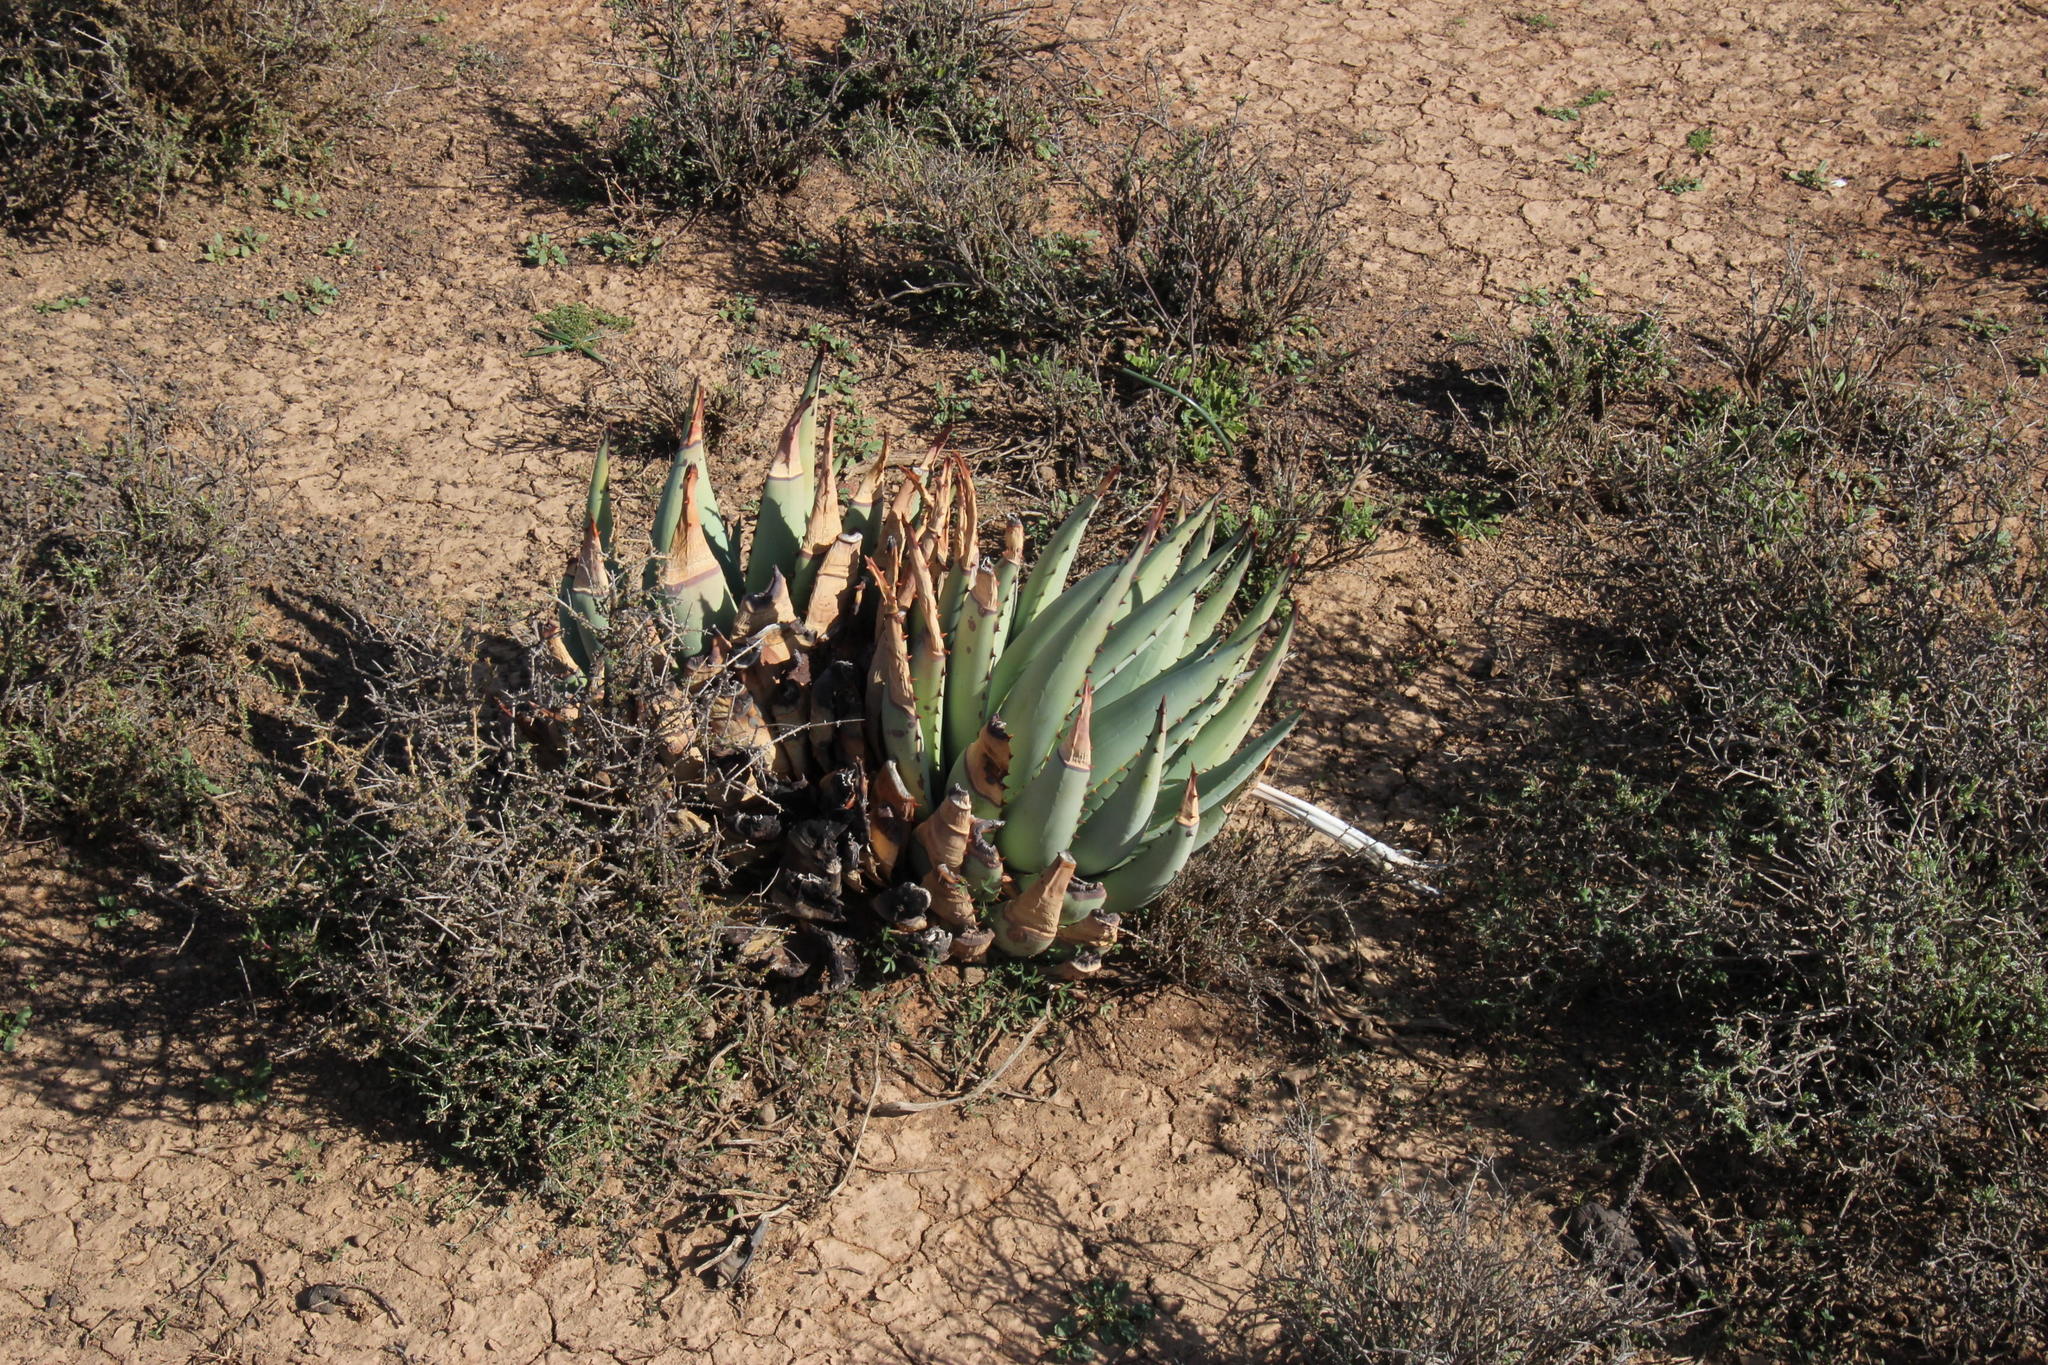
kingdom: Plantae
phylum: Tracheophyta
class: Liliopsida
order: Asparagales
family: Asphodelaceae
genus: Aloe
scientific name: Aloe claviflora
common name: Cannon aloe
